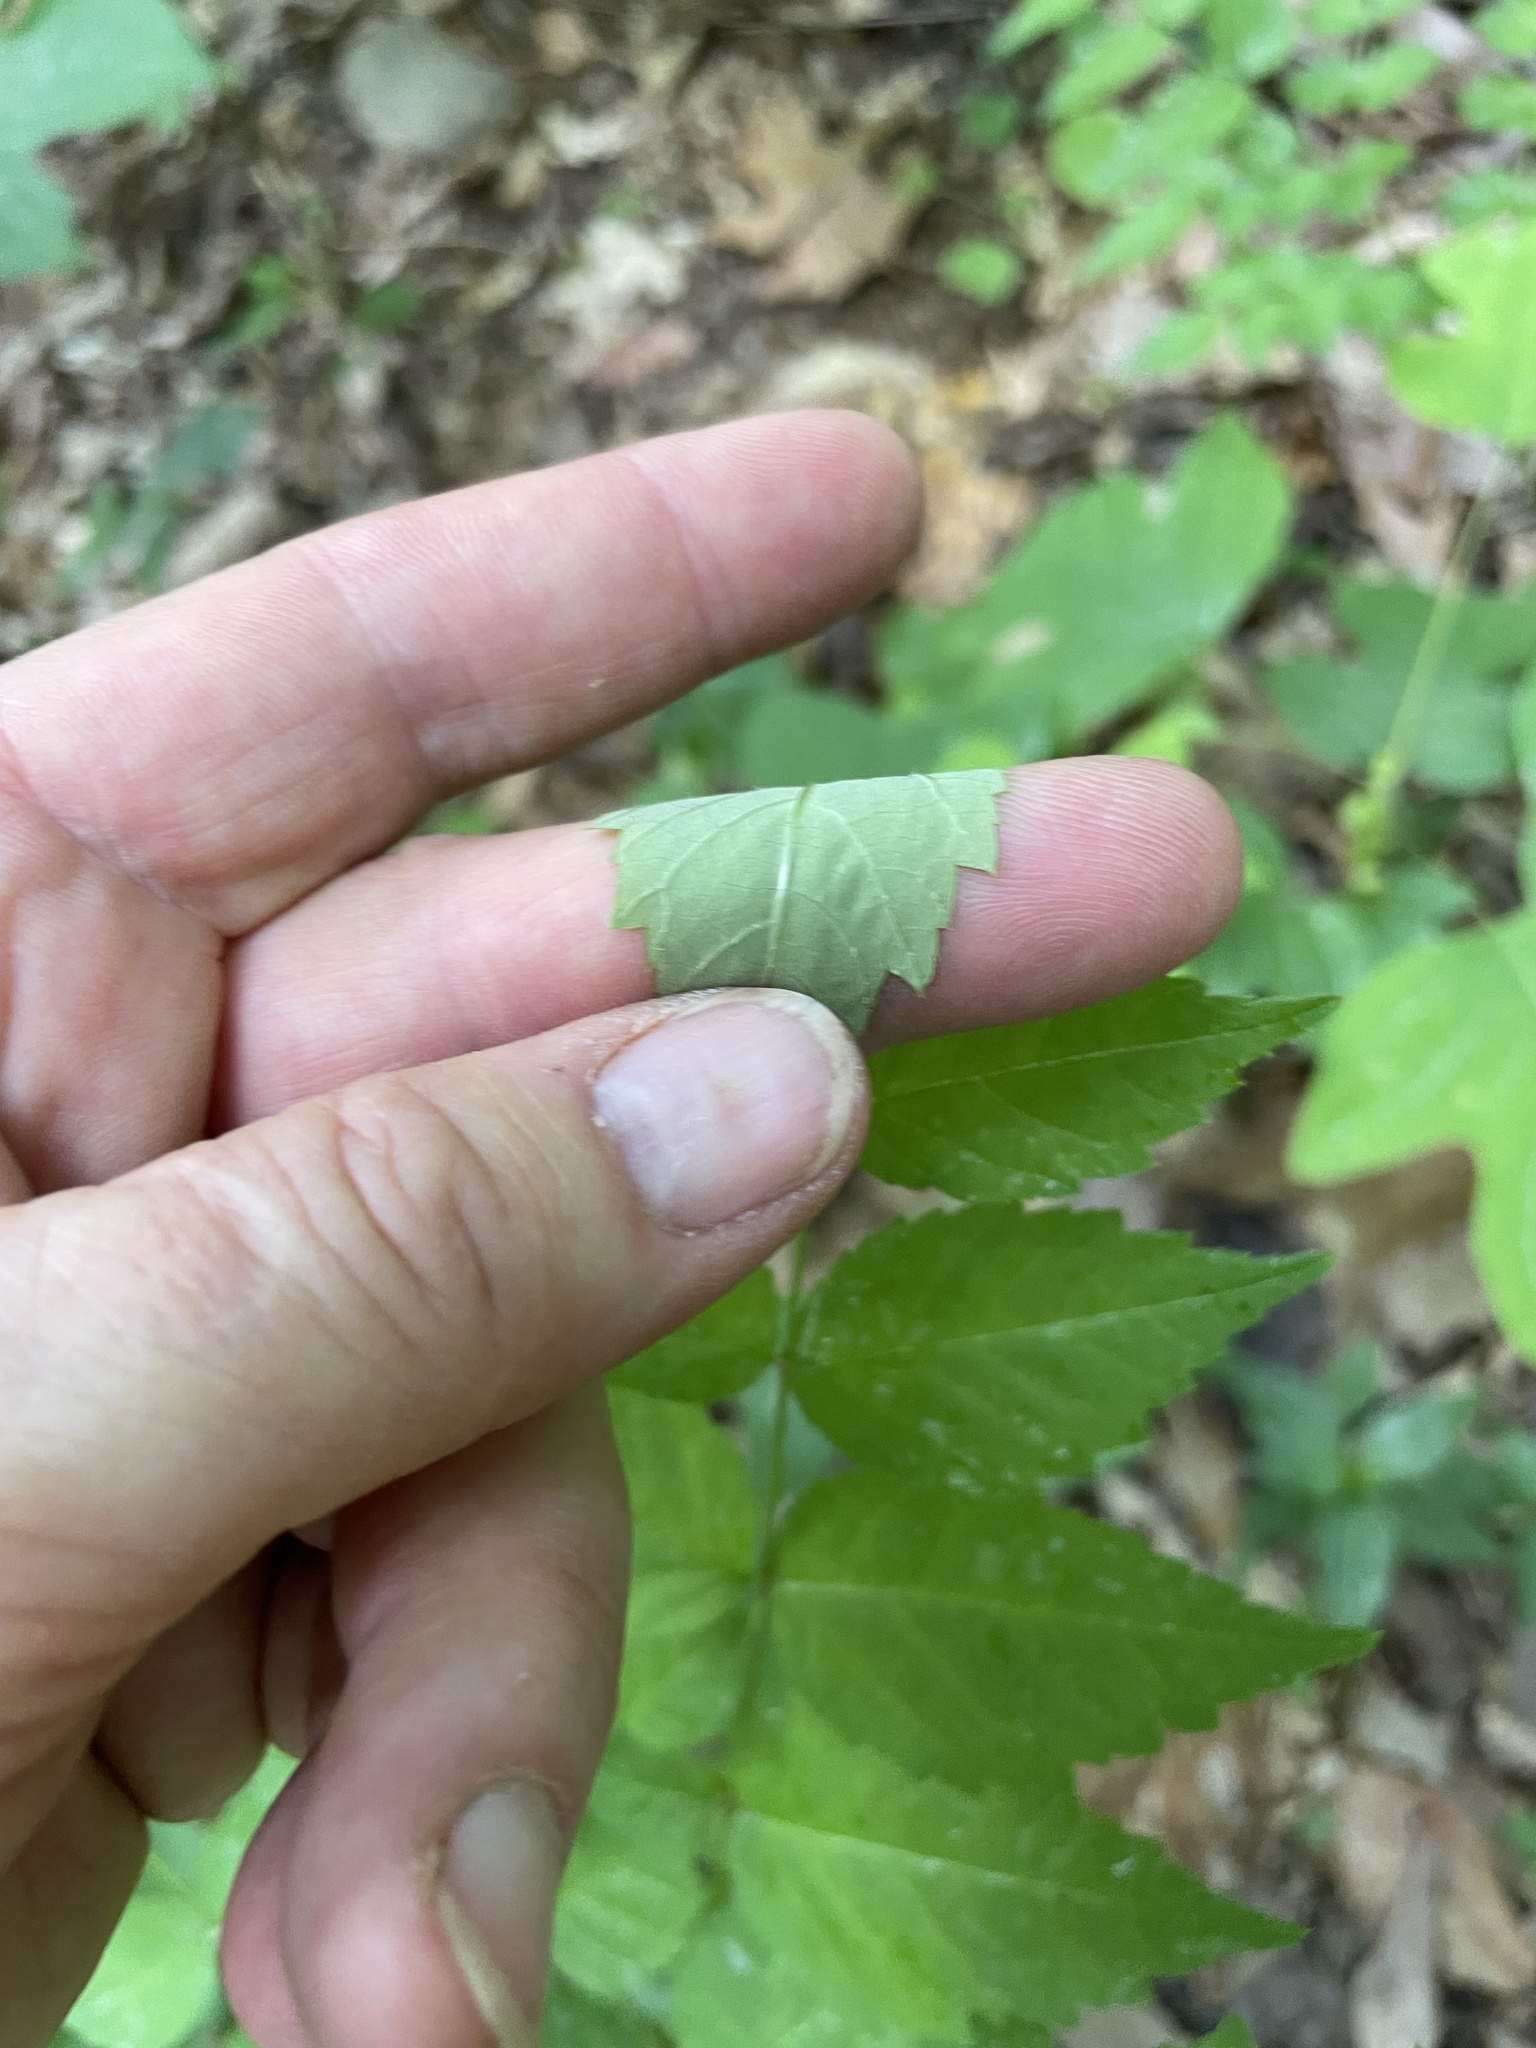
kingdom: Plantae
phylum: Tracheophyta
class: Magnoliopsida
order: Apiales
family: Araliaceae
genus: Aralia
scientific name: Aralia elata
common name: Japanese angelica-tree
